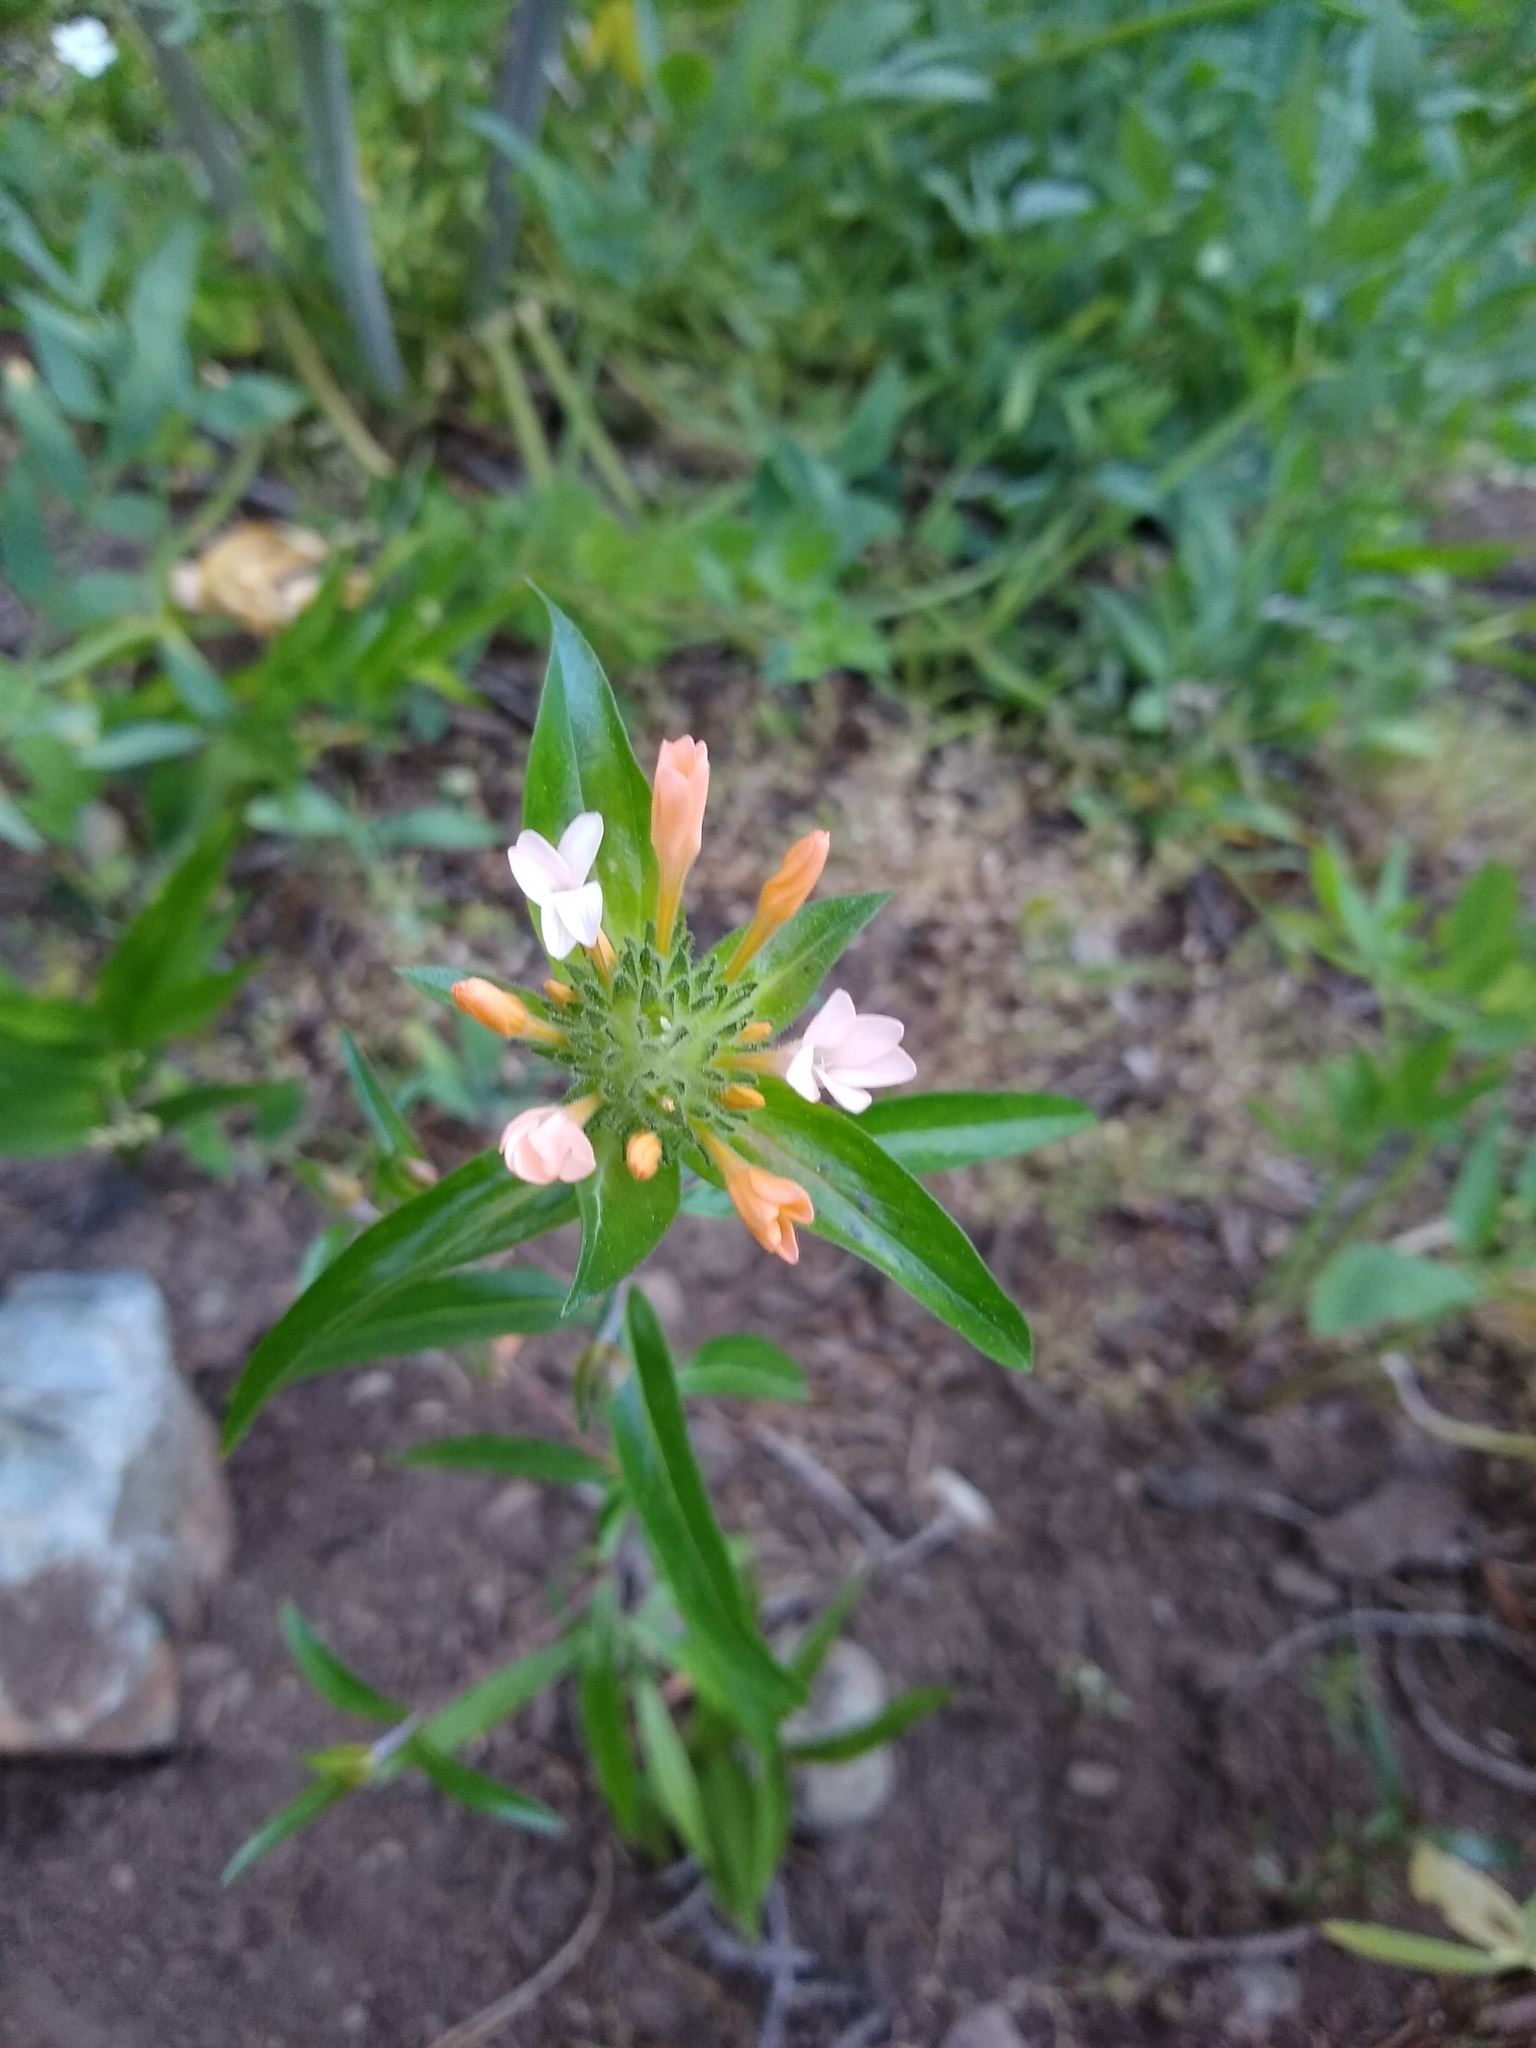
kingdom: Plantae
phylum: Tracheophyta
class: Magnoliopsida
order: Ericales
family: Polemoniaceae
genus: Collomia
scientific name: Collomia grandiflora
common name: California strawflower
